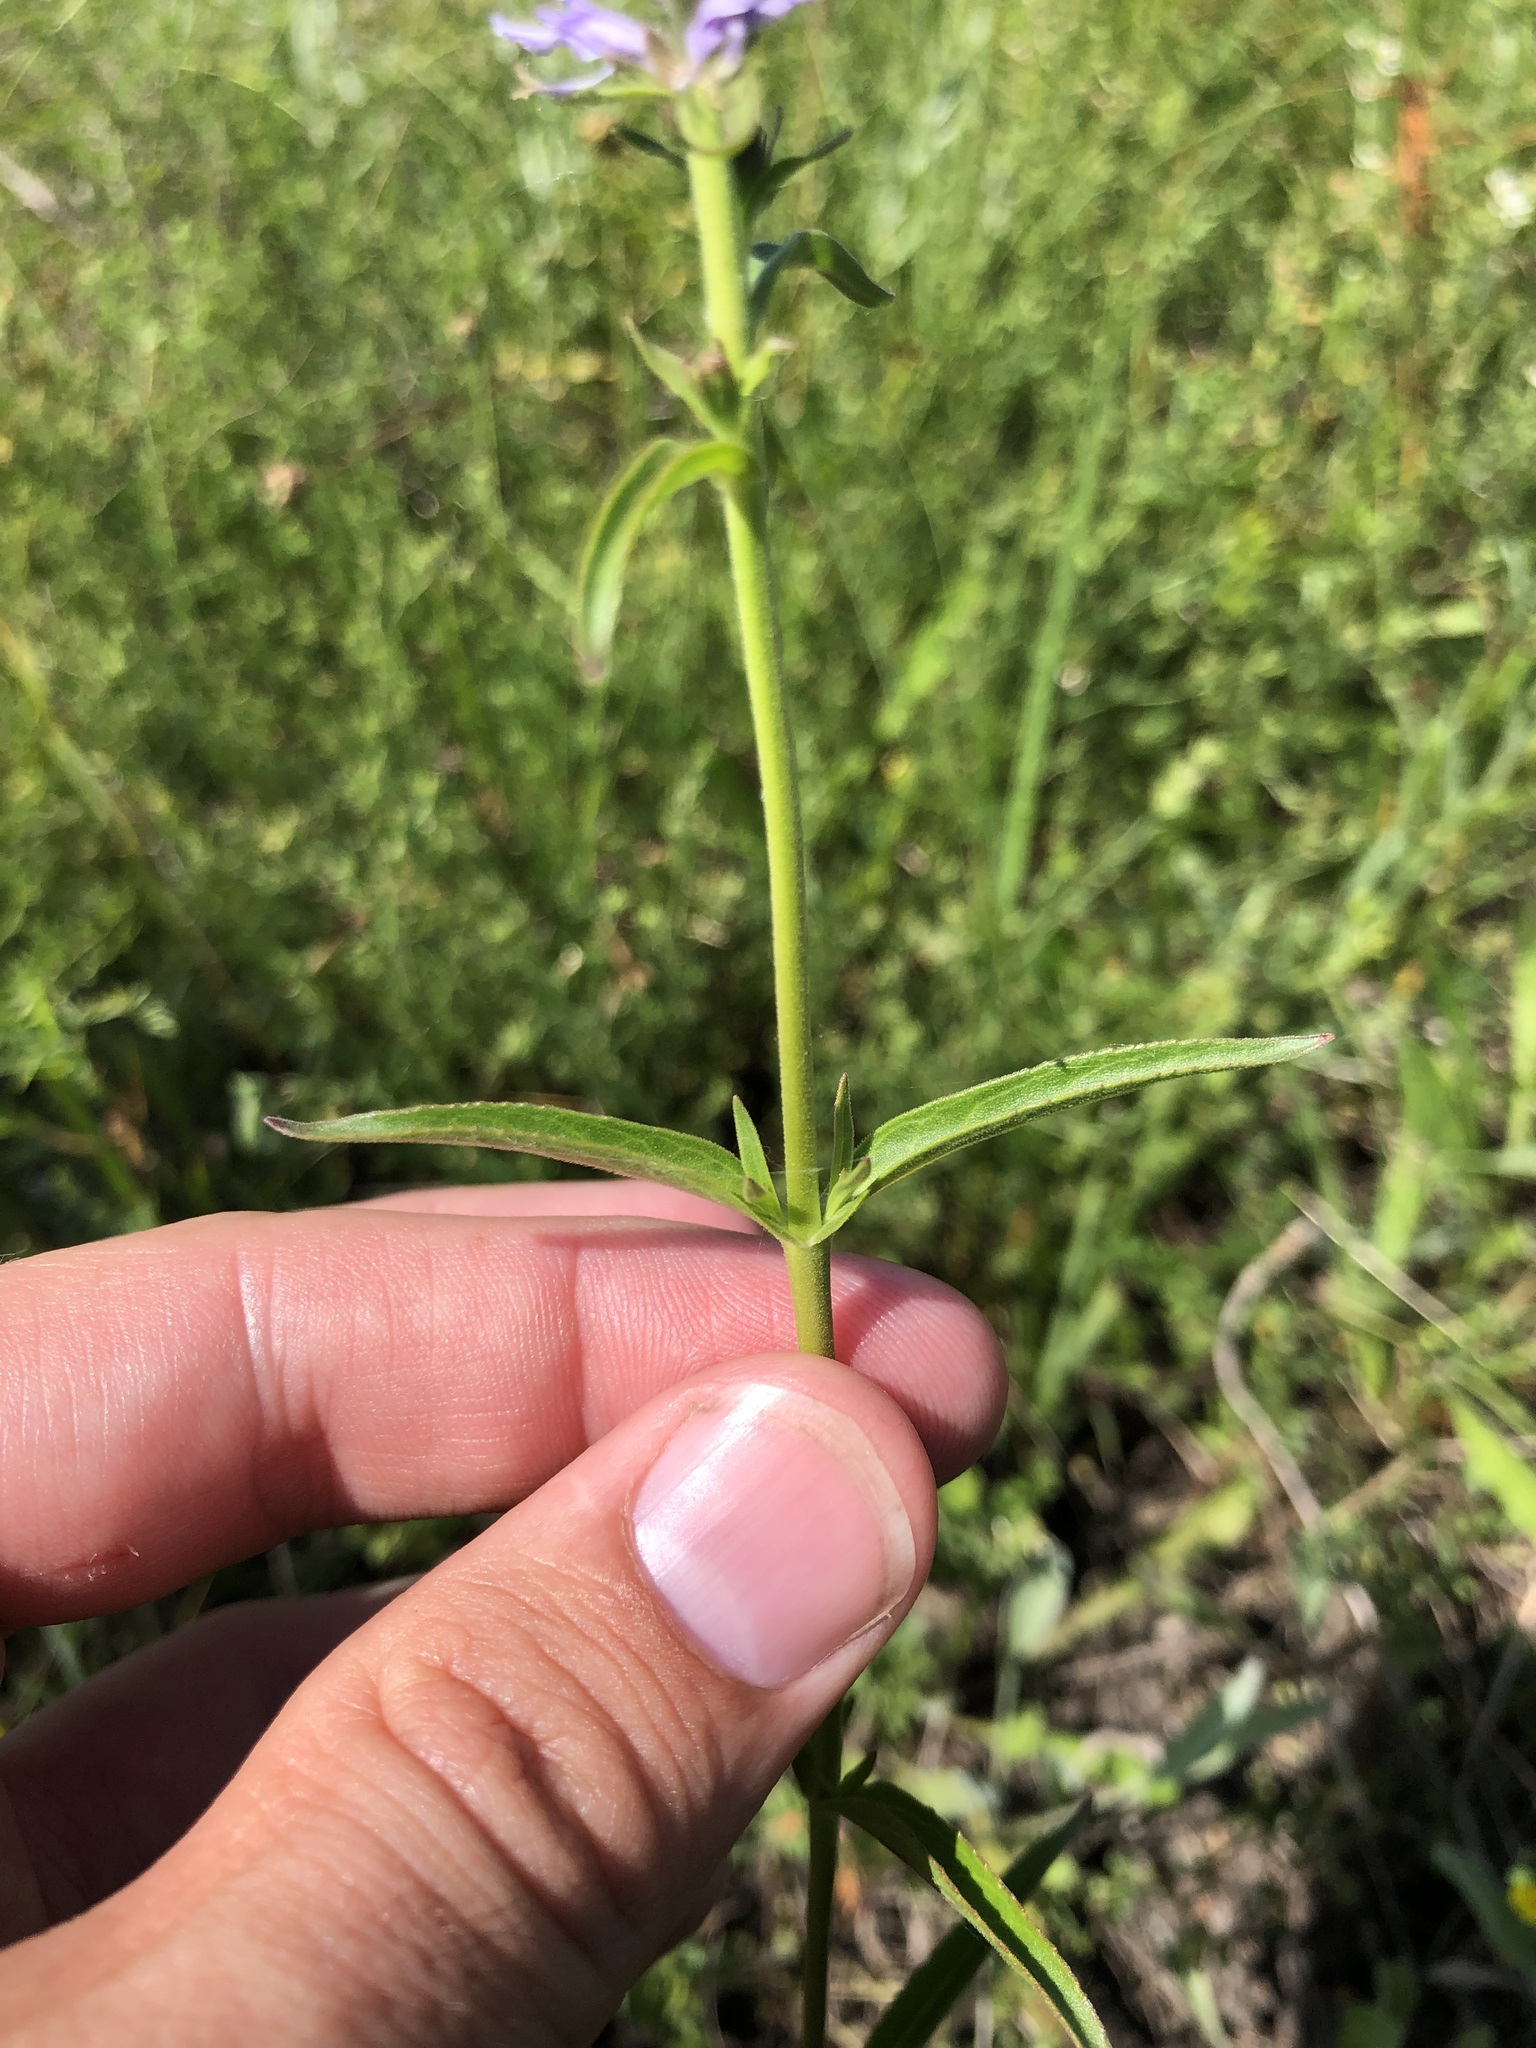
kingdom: Plantae
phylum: Tracheophyta
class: Magnoliopsida
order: Lamiales
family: Plantaginaceae
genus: Veronica
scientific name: Veronica orchidea
